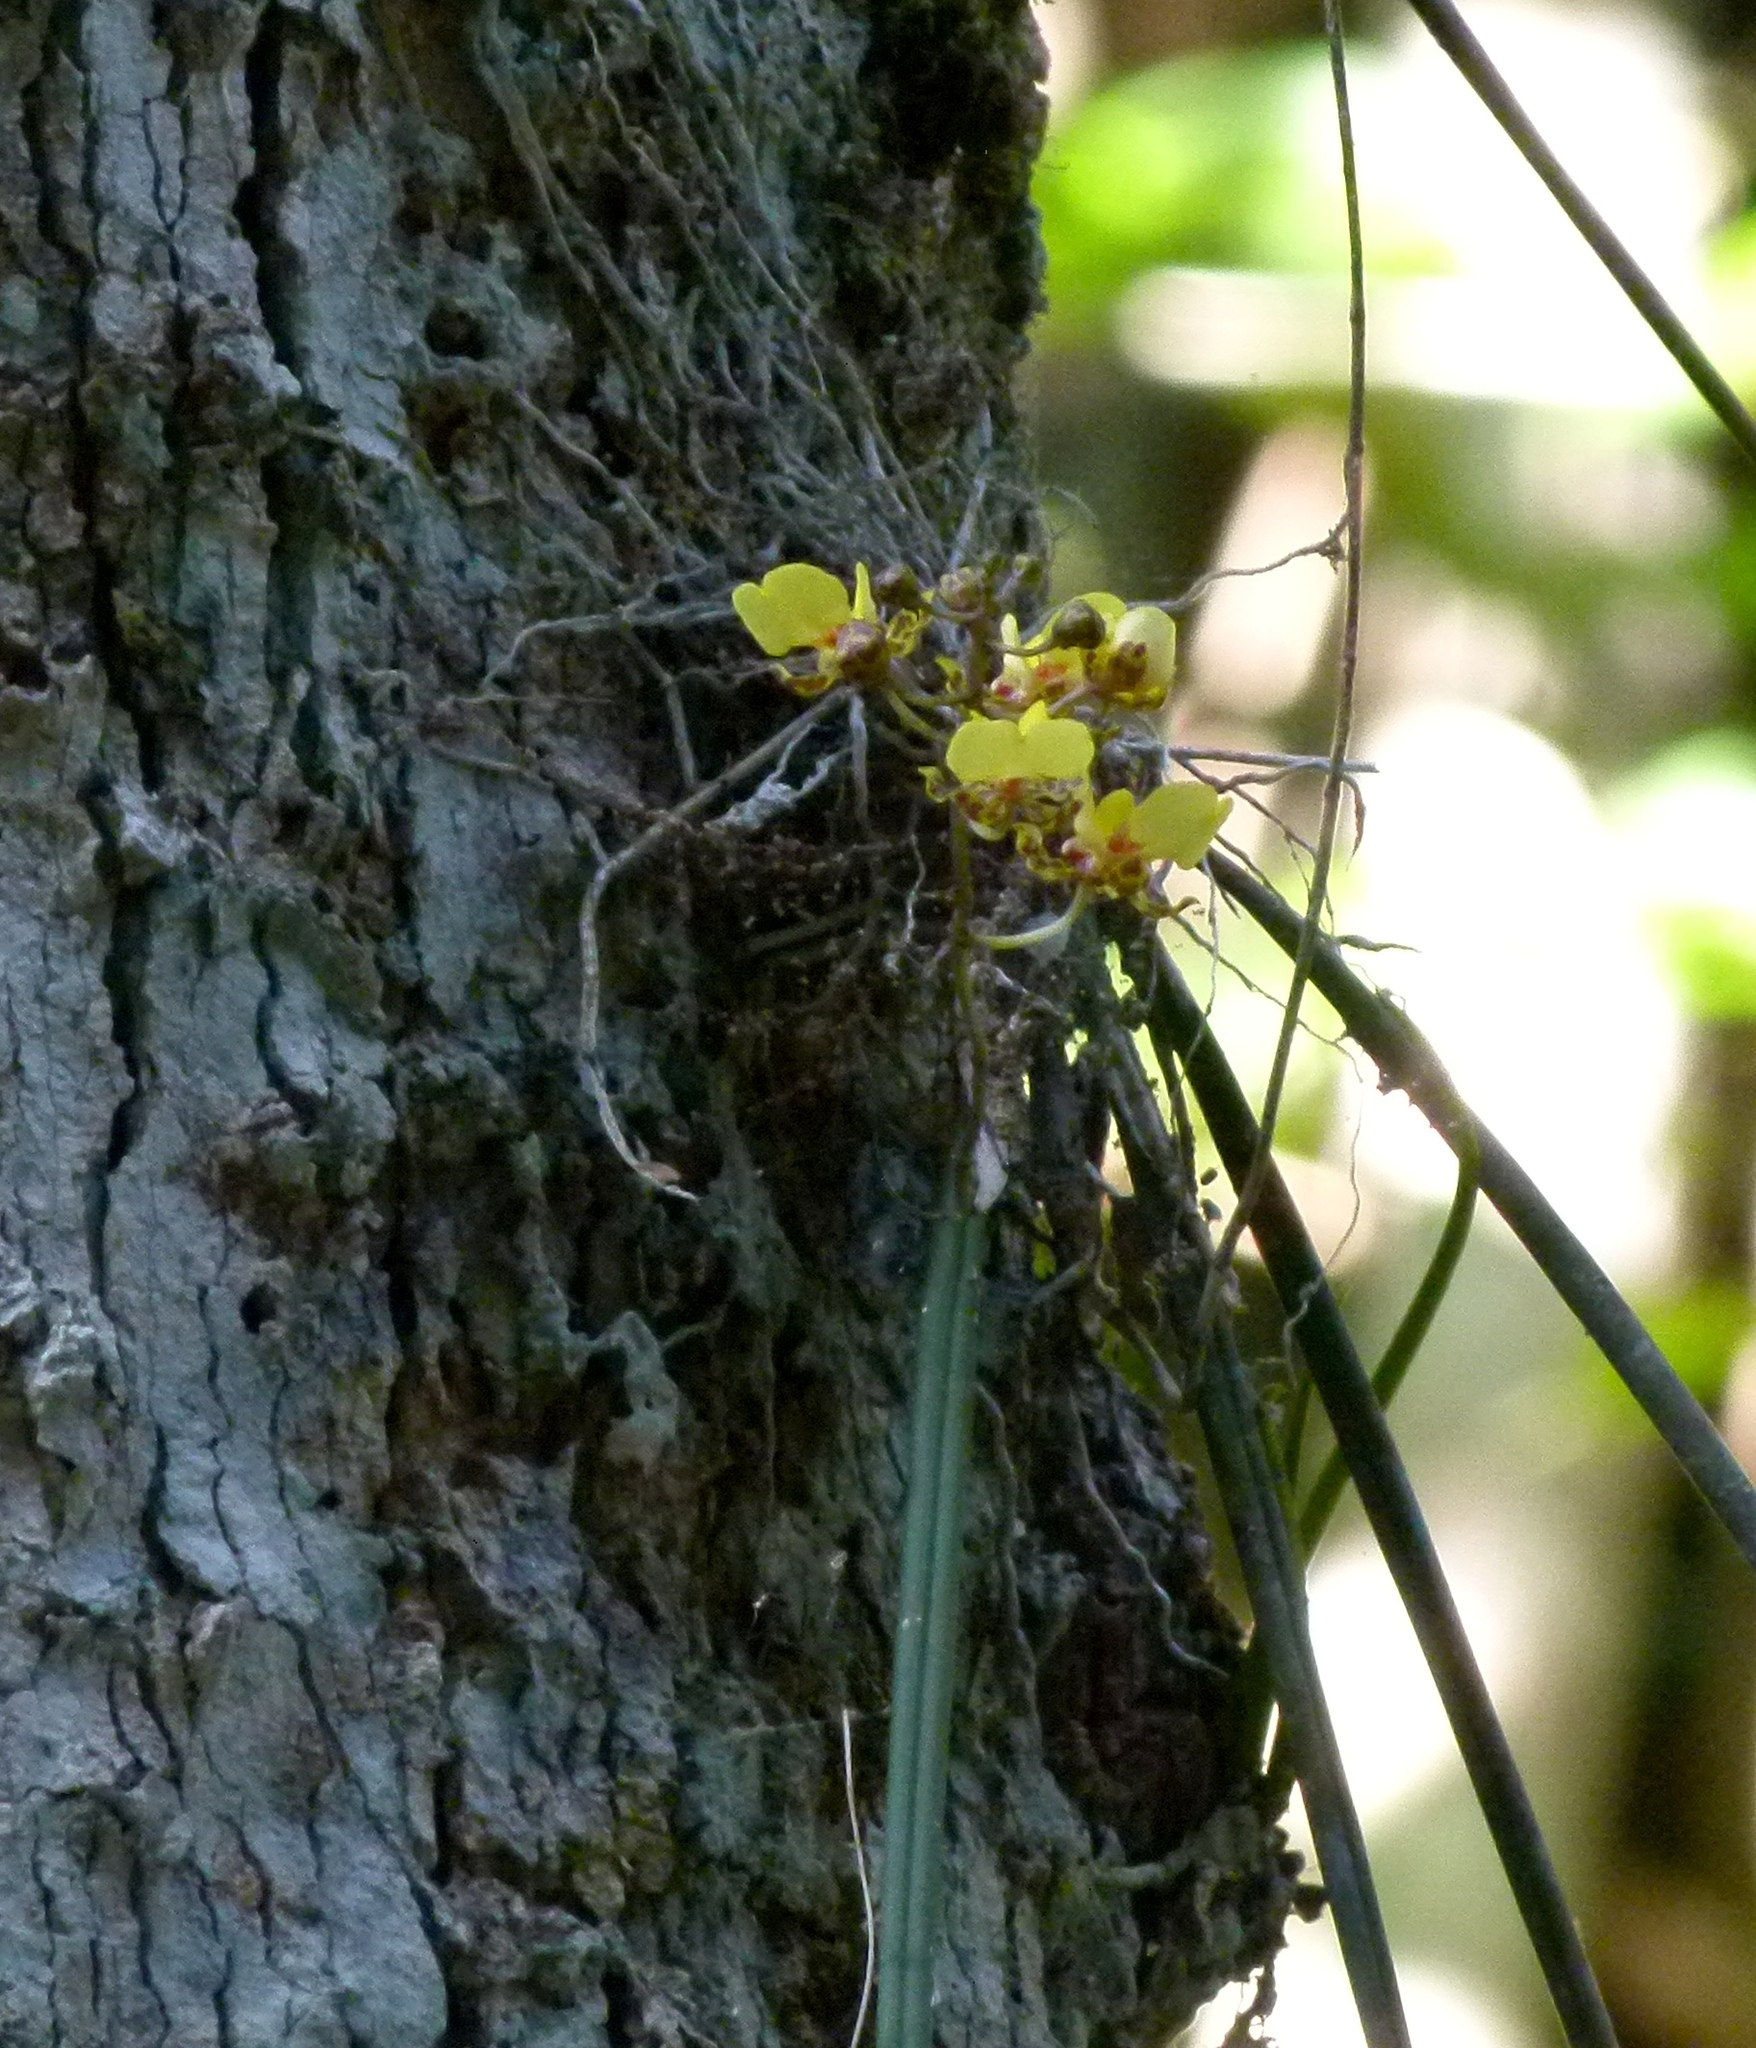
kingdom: Plantae
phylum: Tracheophyta
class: Liliopsida
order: Asparagales
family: Orchidaceae
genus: Trichocentrum
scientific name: Trichocentrum ascendens
